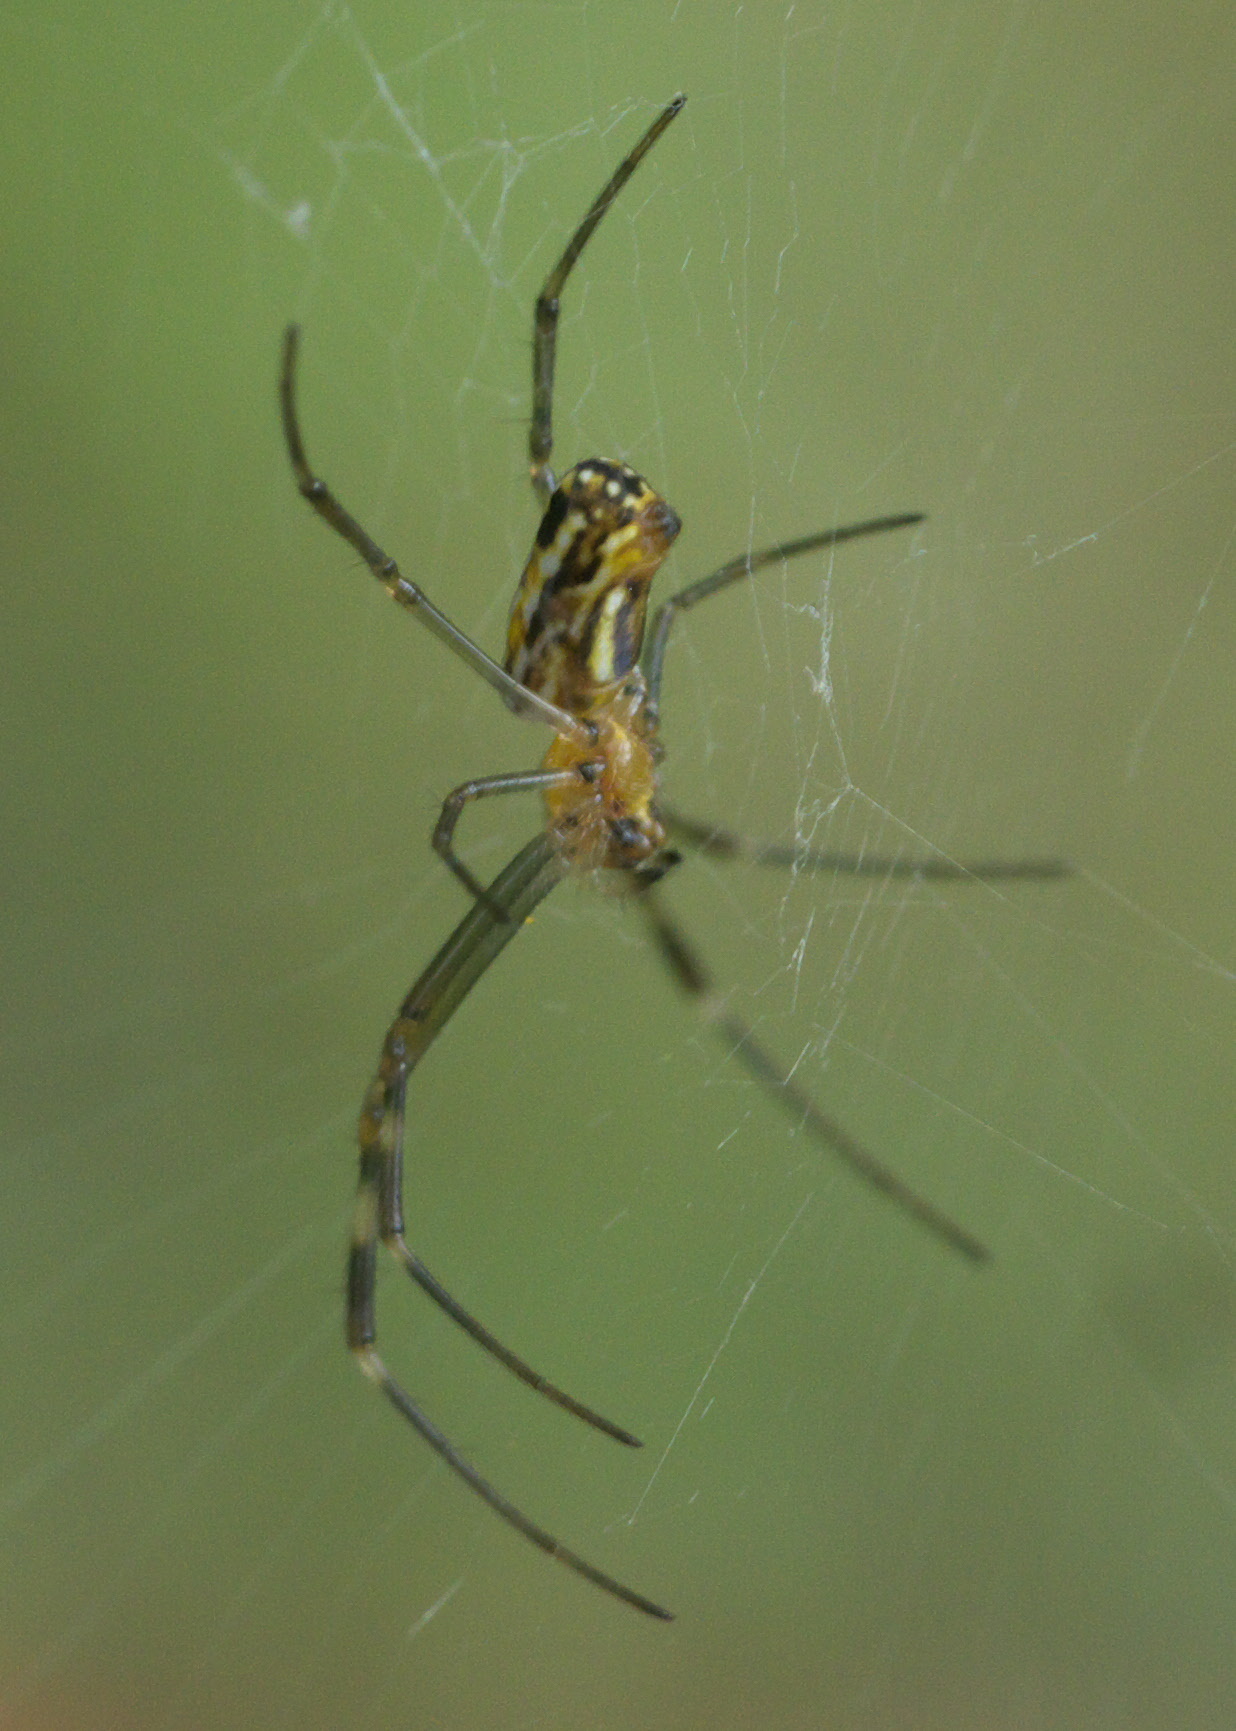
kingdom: Animalia
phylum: Arthropoda
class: Arachnida
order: Araneae
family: Araneidae
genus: Trichonephila
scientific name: Trichonephila clavipes
